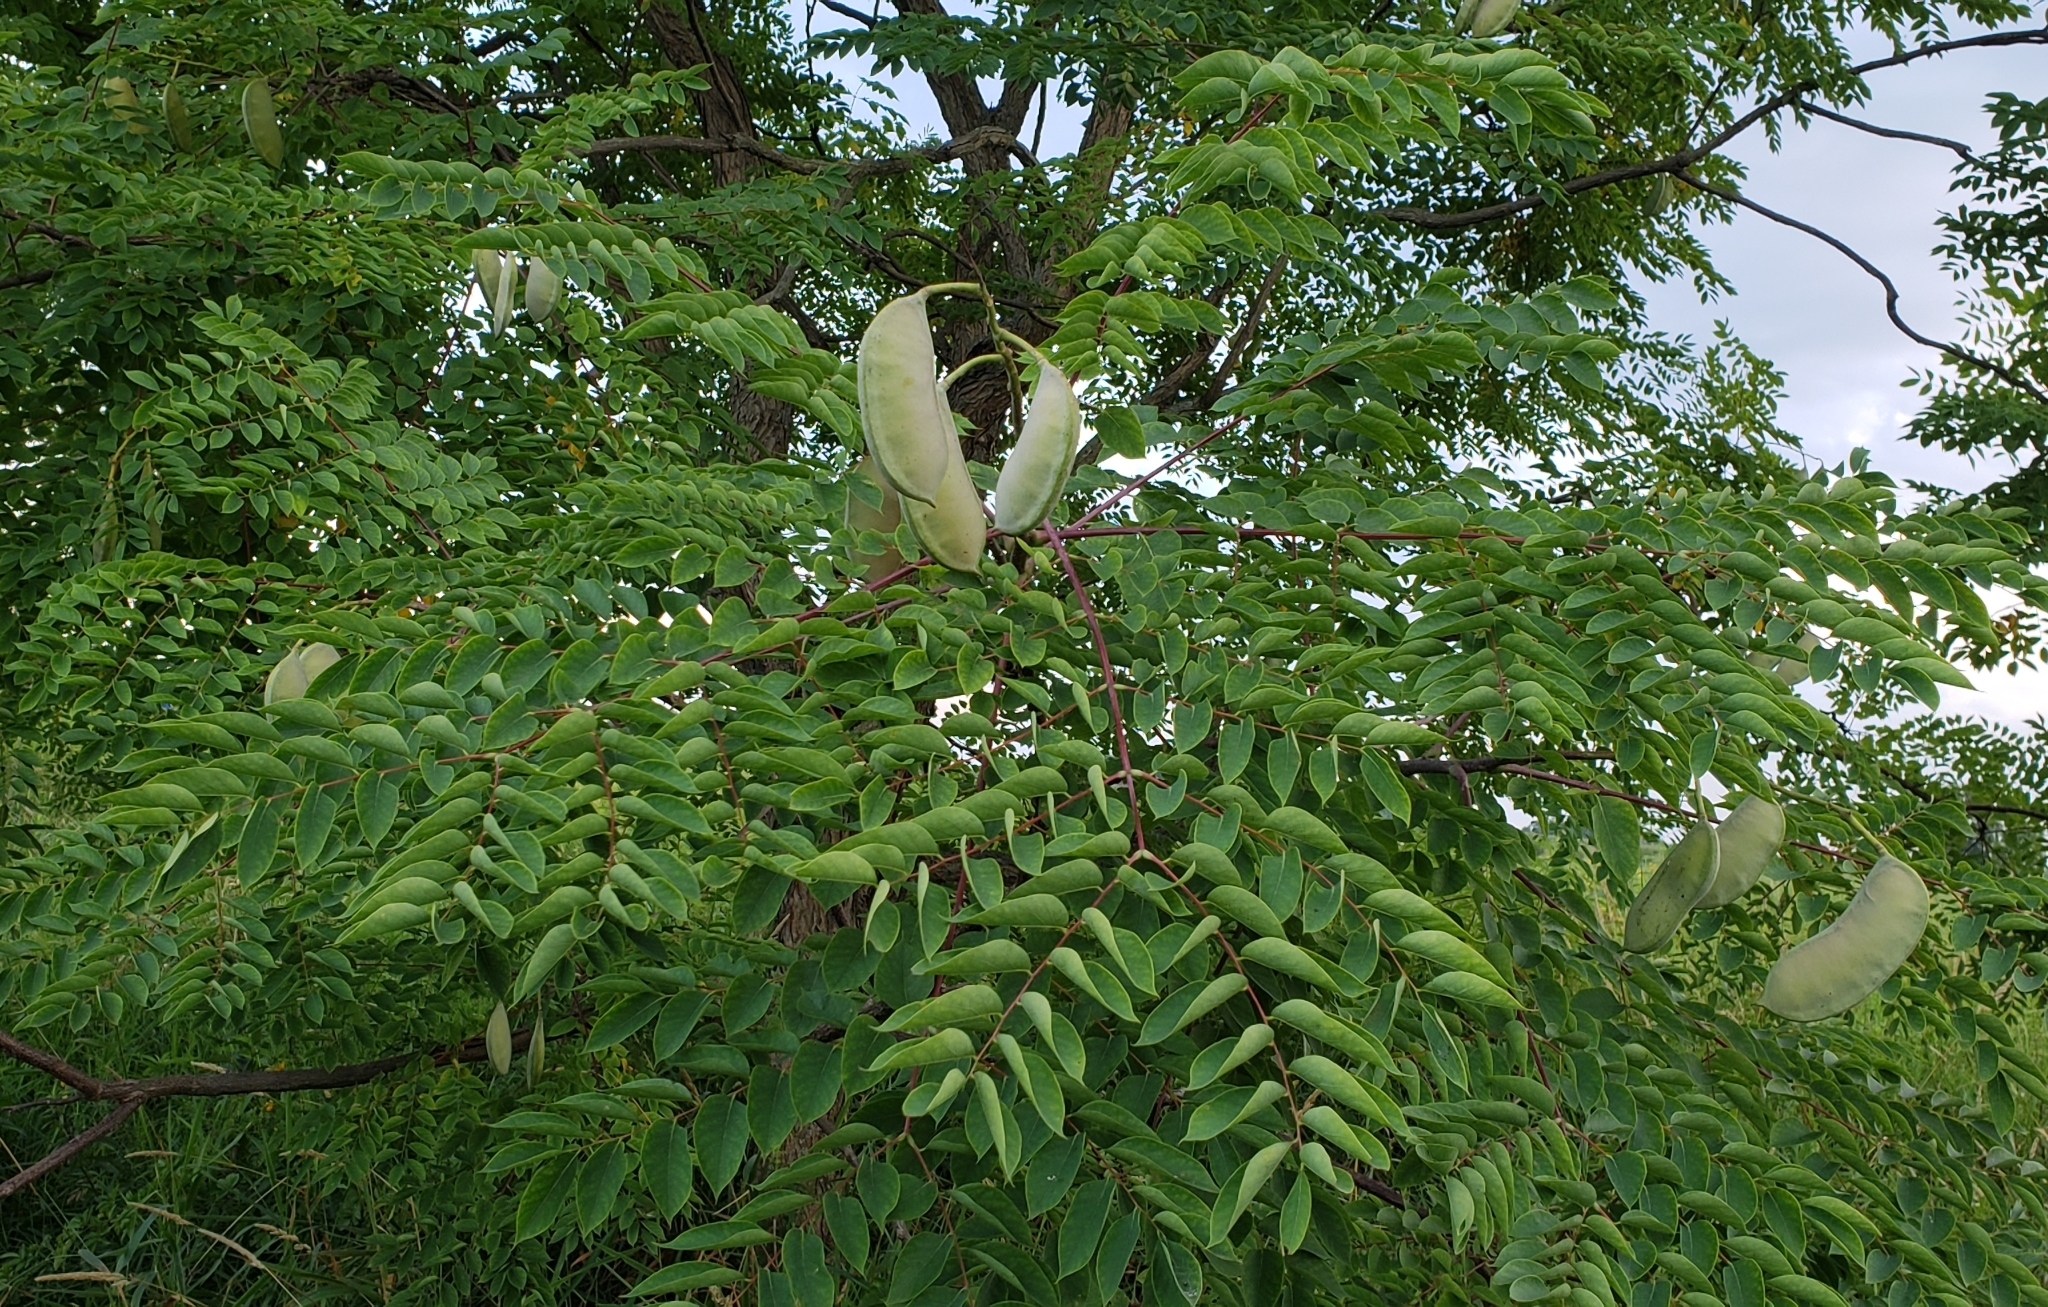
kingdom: Plantae
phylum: Tracheophyta
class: Magnoliopsida
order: Fabales
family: Fabaceae
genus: Gymnocladus
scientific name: Gymnocladus dioicus
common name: Kentucky coffee-tree
